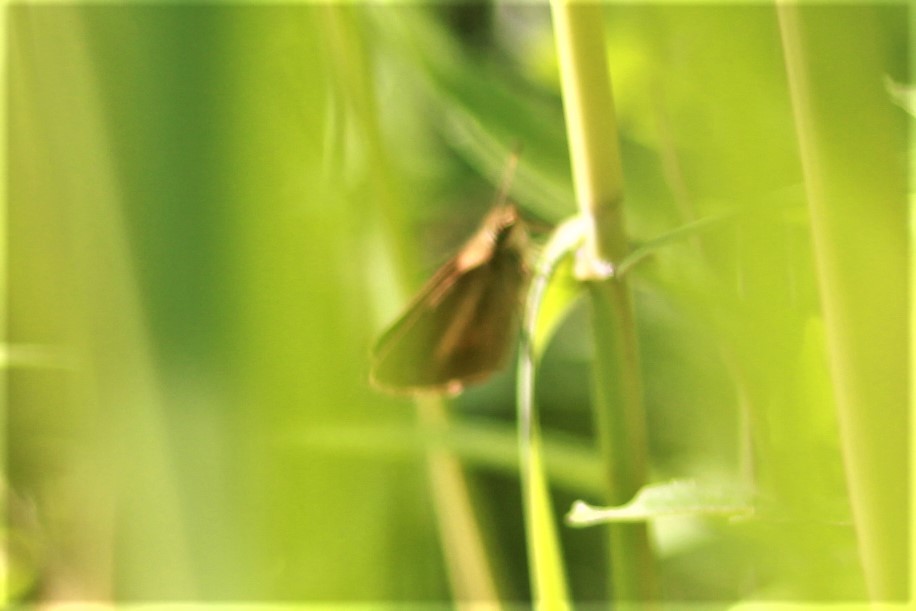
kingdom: Animalia
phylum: Arthropoda
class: Insecta
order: Lepidoptera
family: Hesperiidae
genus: Poanes
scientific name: Poanes viator
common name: Broad-winged skipper
